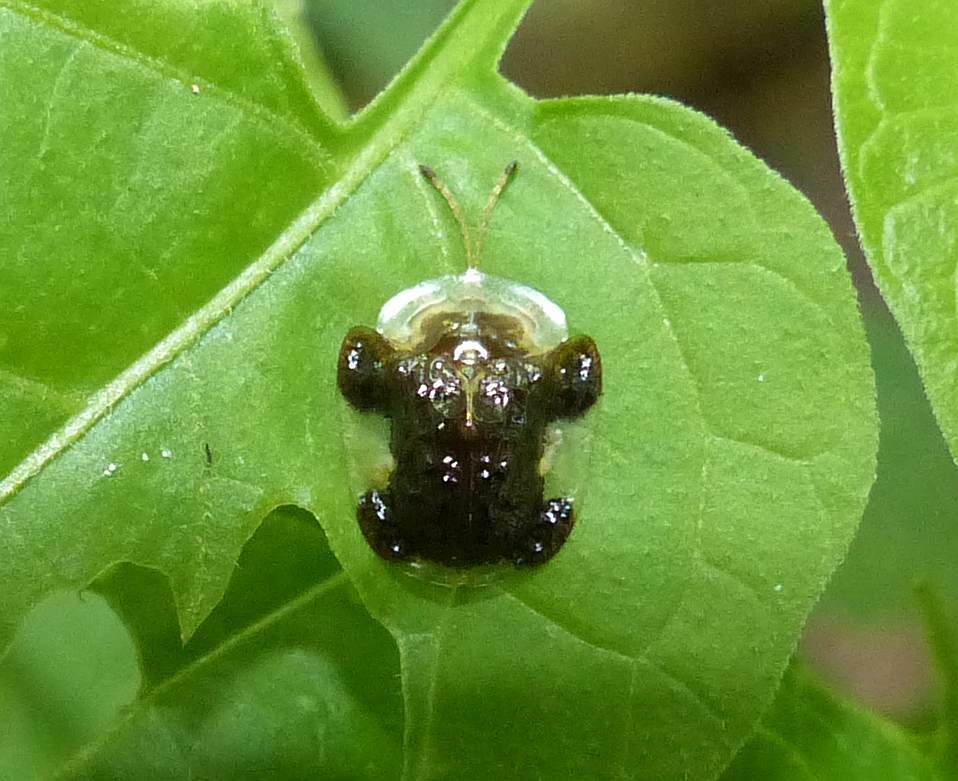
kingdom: Animalia
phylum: Arthropoda
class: Insecta
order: Coleoptera
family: Chrysomelidae
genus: Helocassis
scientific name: Helocassis clavata
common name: Clavate tortoise beetle
